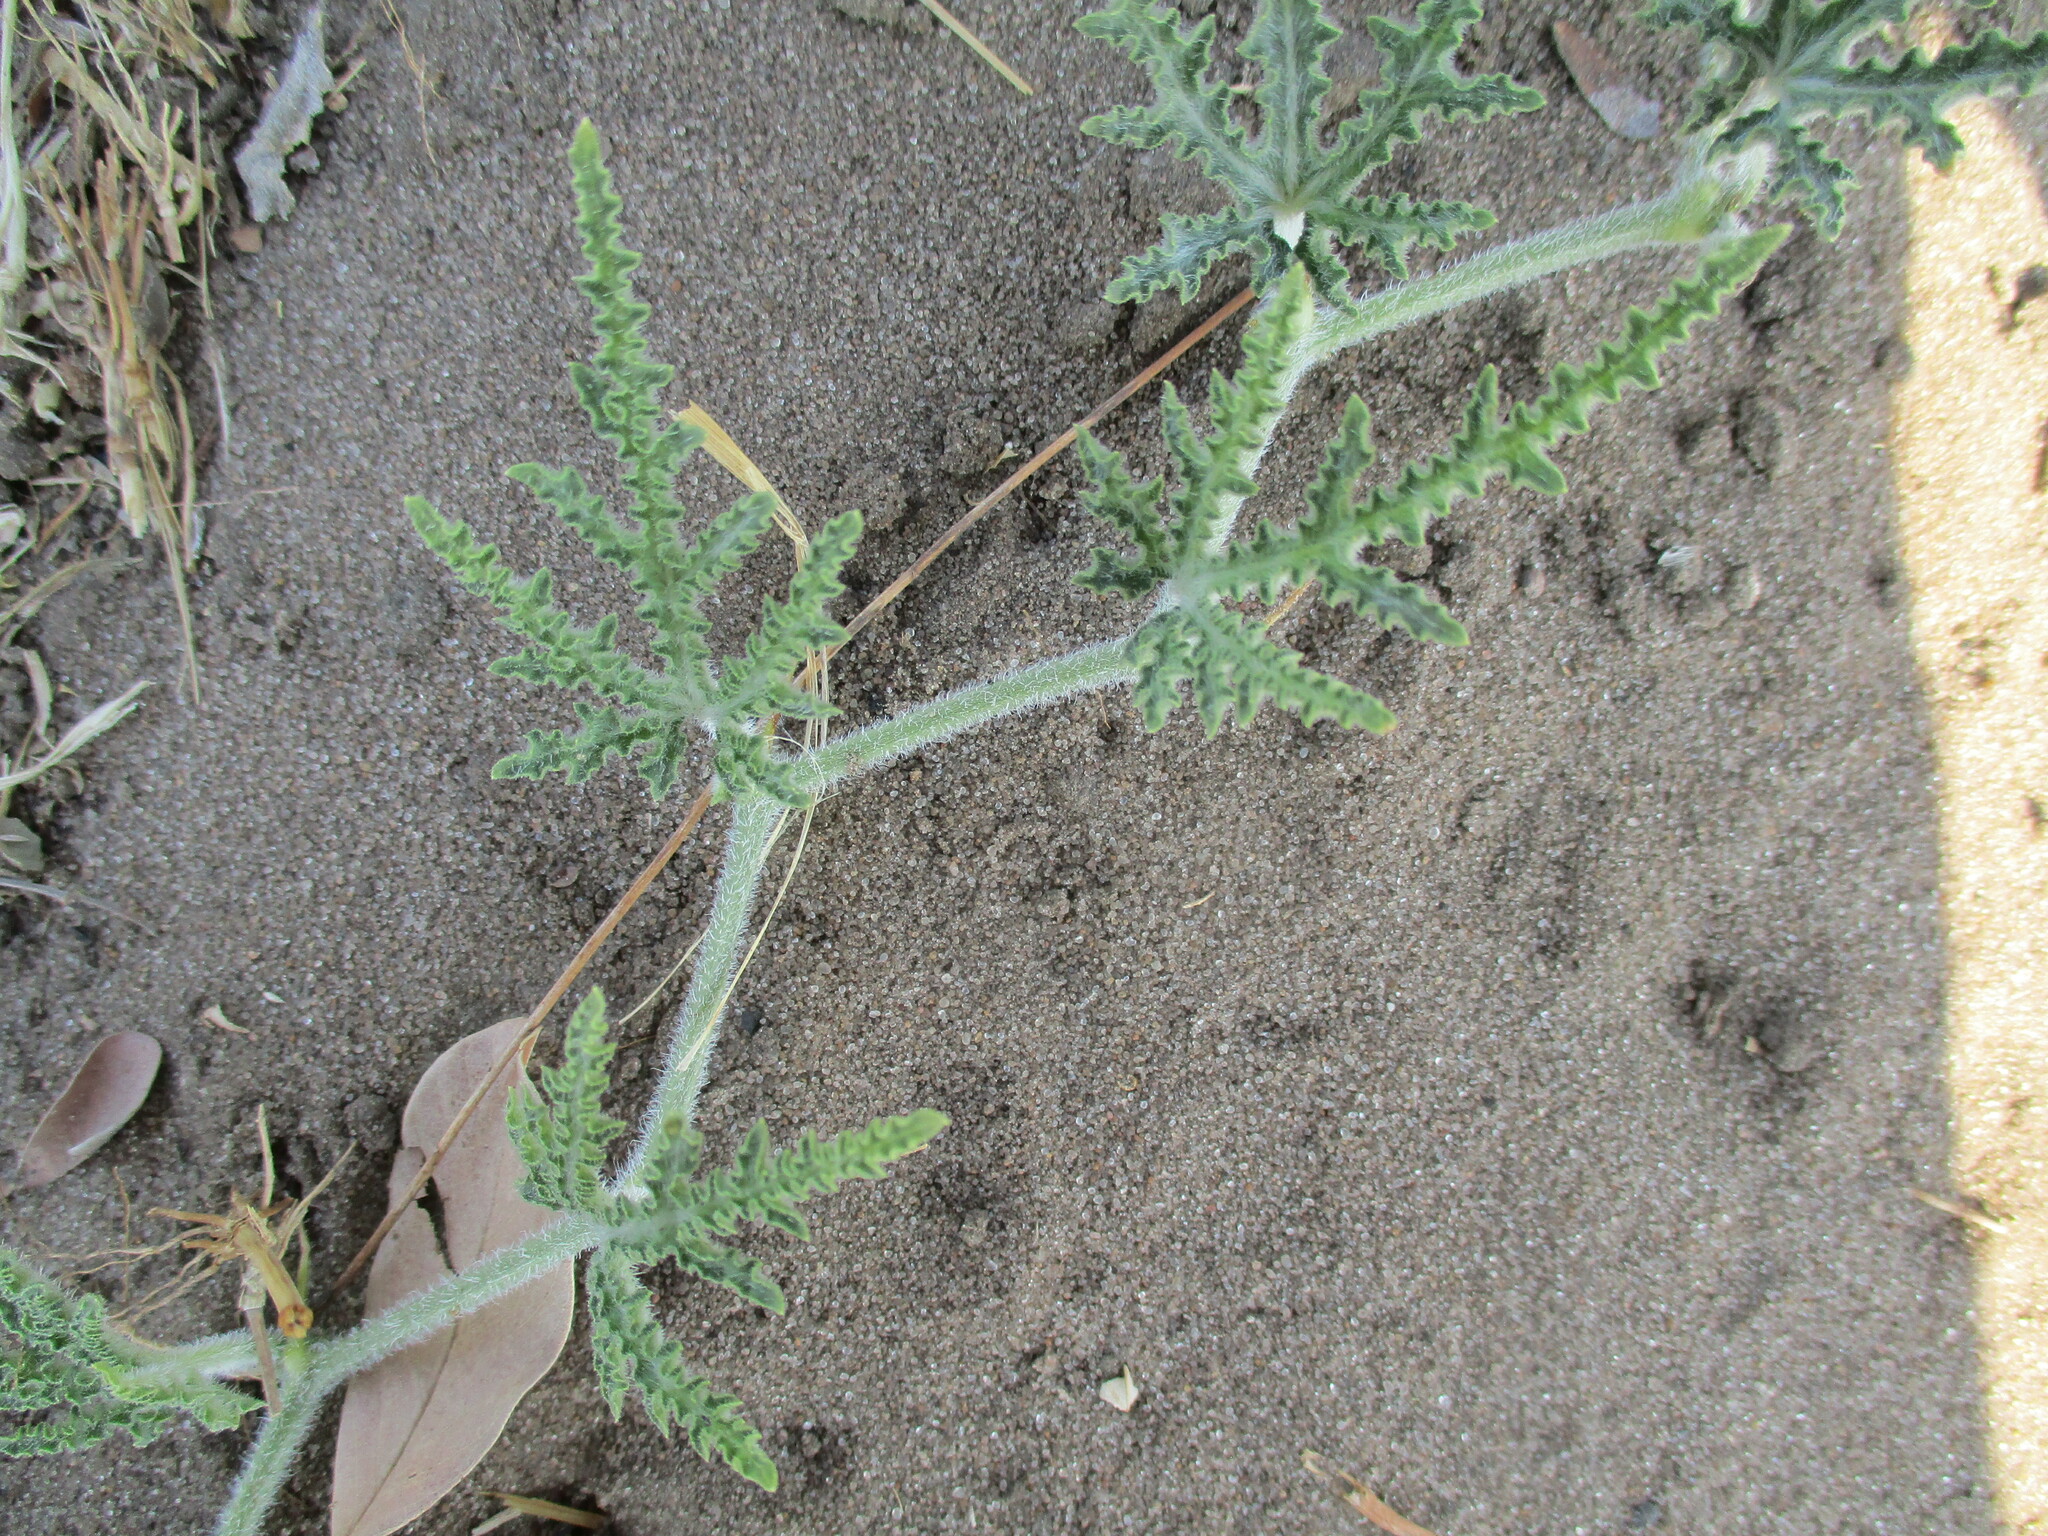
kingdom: Plantae
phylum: Tracheophyta
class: Magnoliopsida
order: Cucurbitales
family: Cucurbitaceae
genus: Citrullus
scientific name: Citrullus naudinianus
